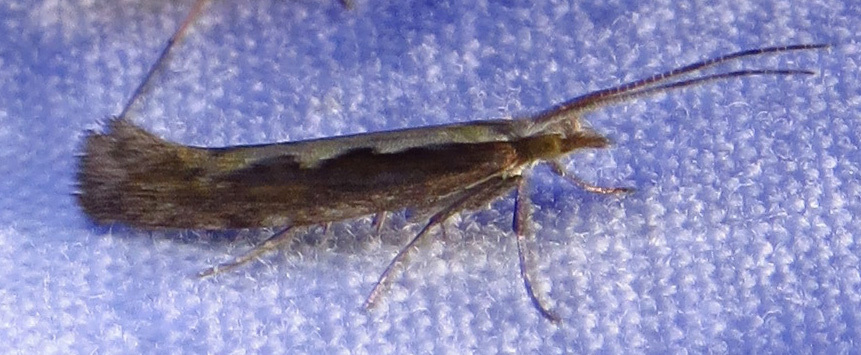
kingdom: Animalia
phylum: Arthropoda
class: Insecta
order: Lepidoptera
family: Plutellidae
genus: Plutella
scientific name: Plutella xylostella
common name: Diamond-back moth
